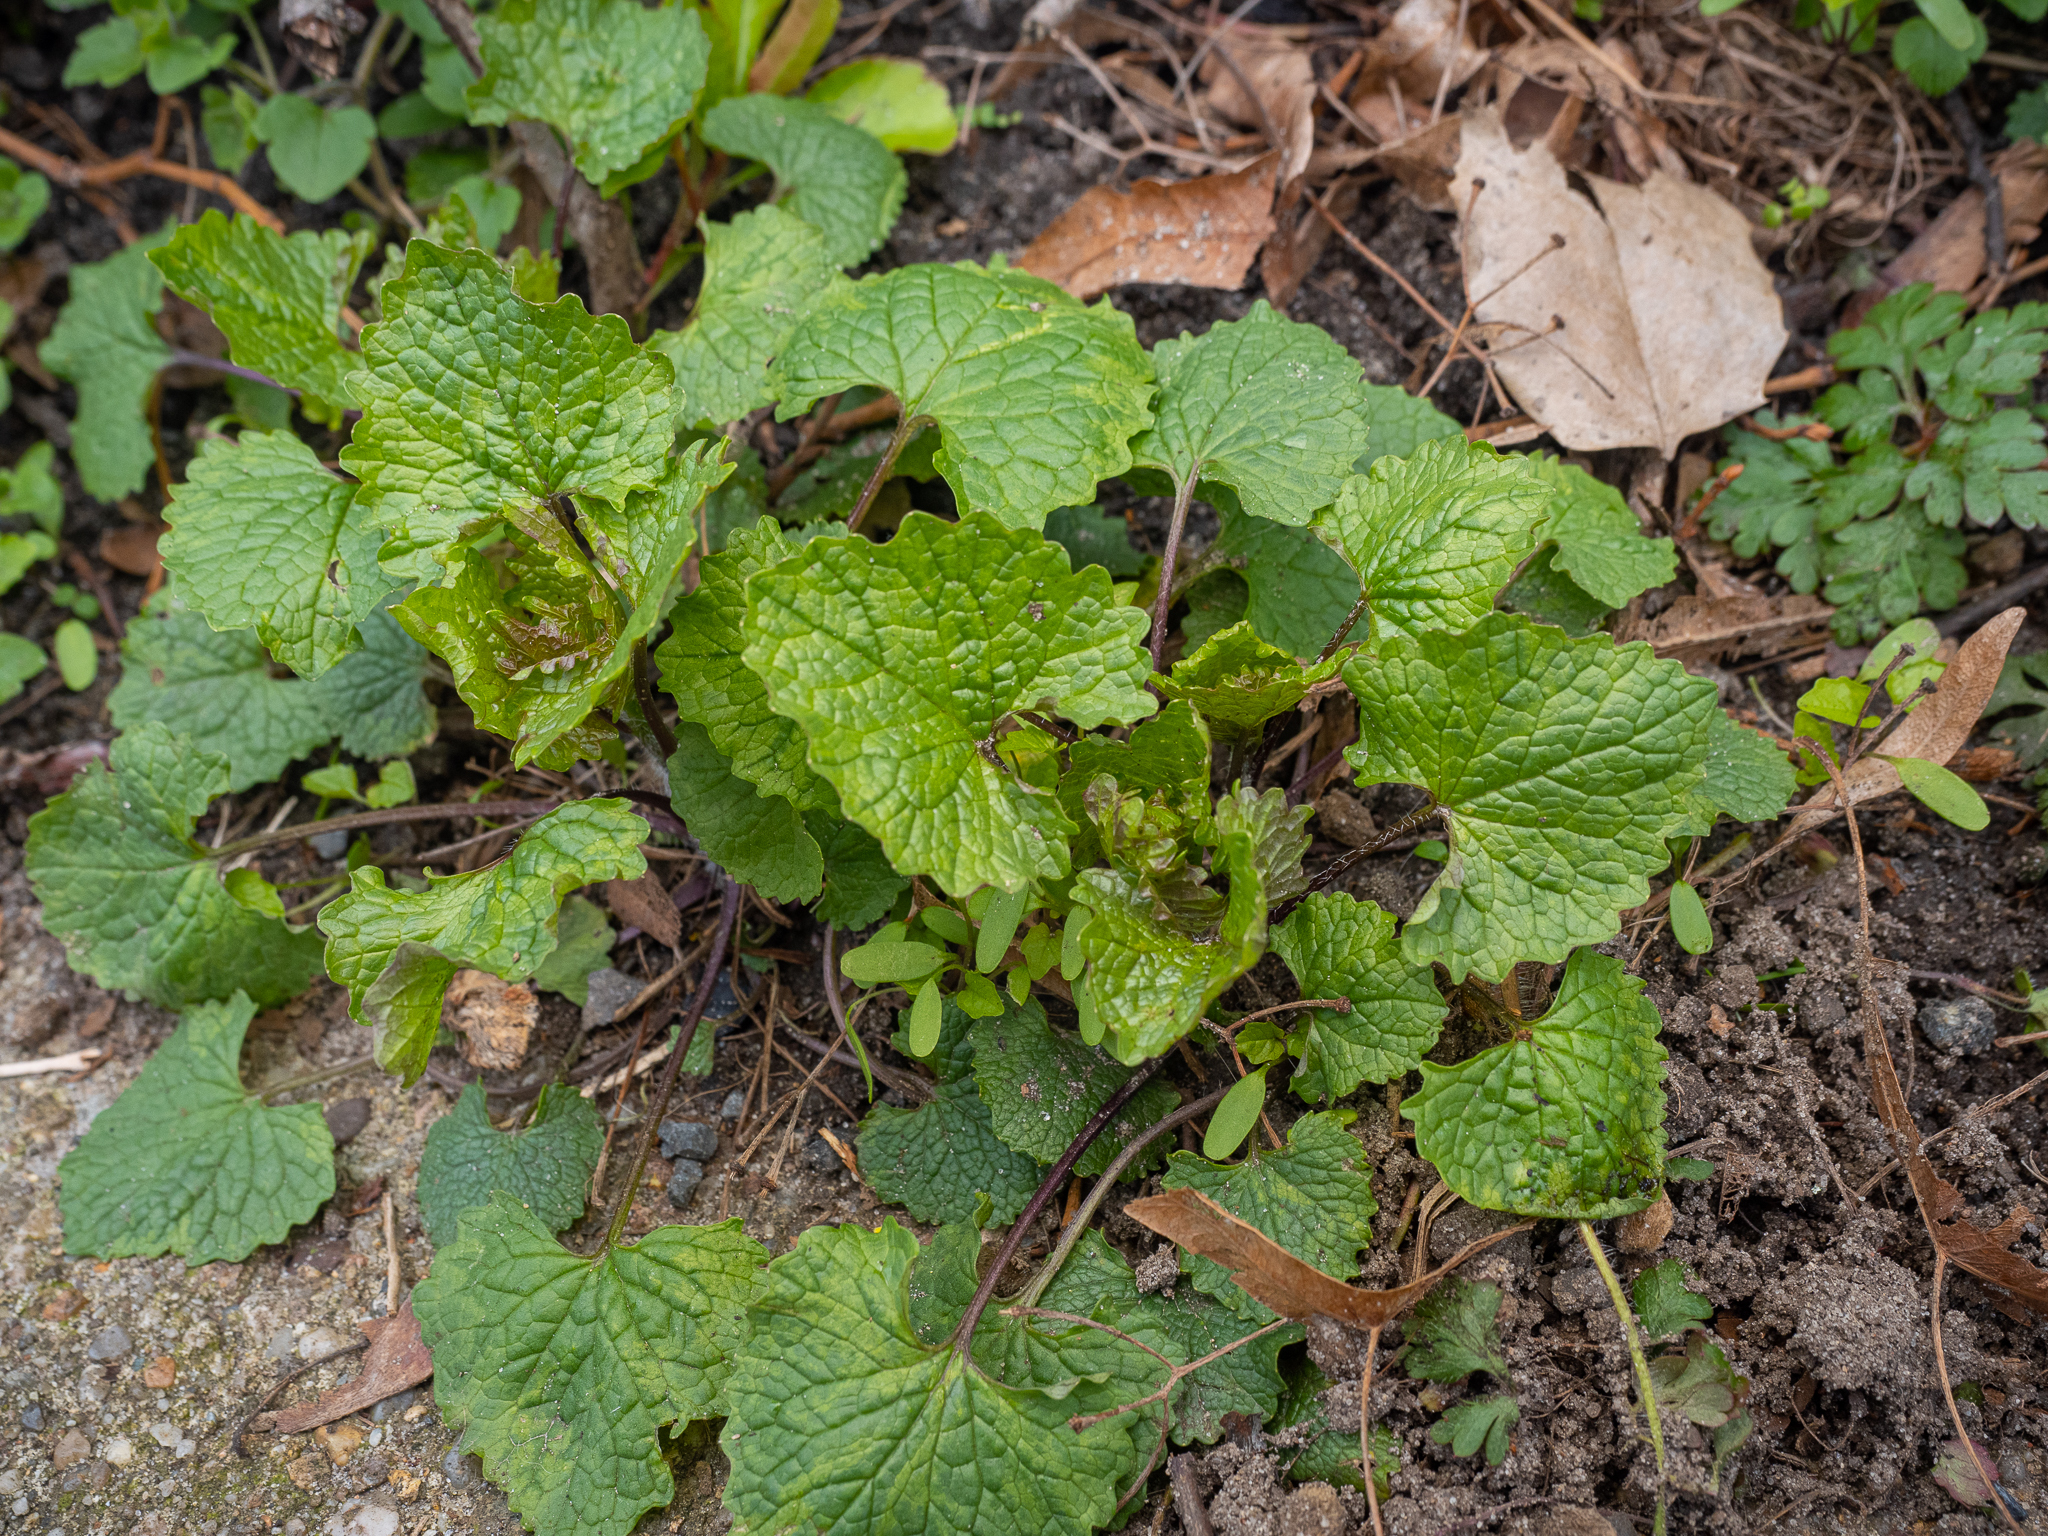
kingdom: Plantae
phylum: Tracheophyta
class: Magnoliopsida
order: Brassicales
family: Brassicaceae
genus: Alliaria
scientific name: Alliaria petiolata
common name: Garlic mustard
